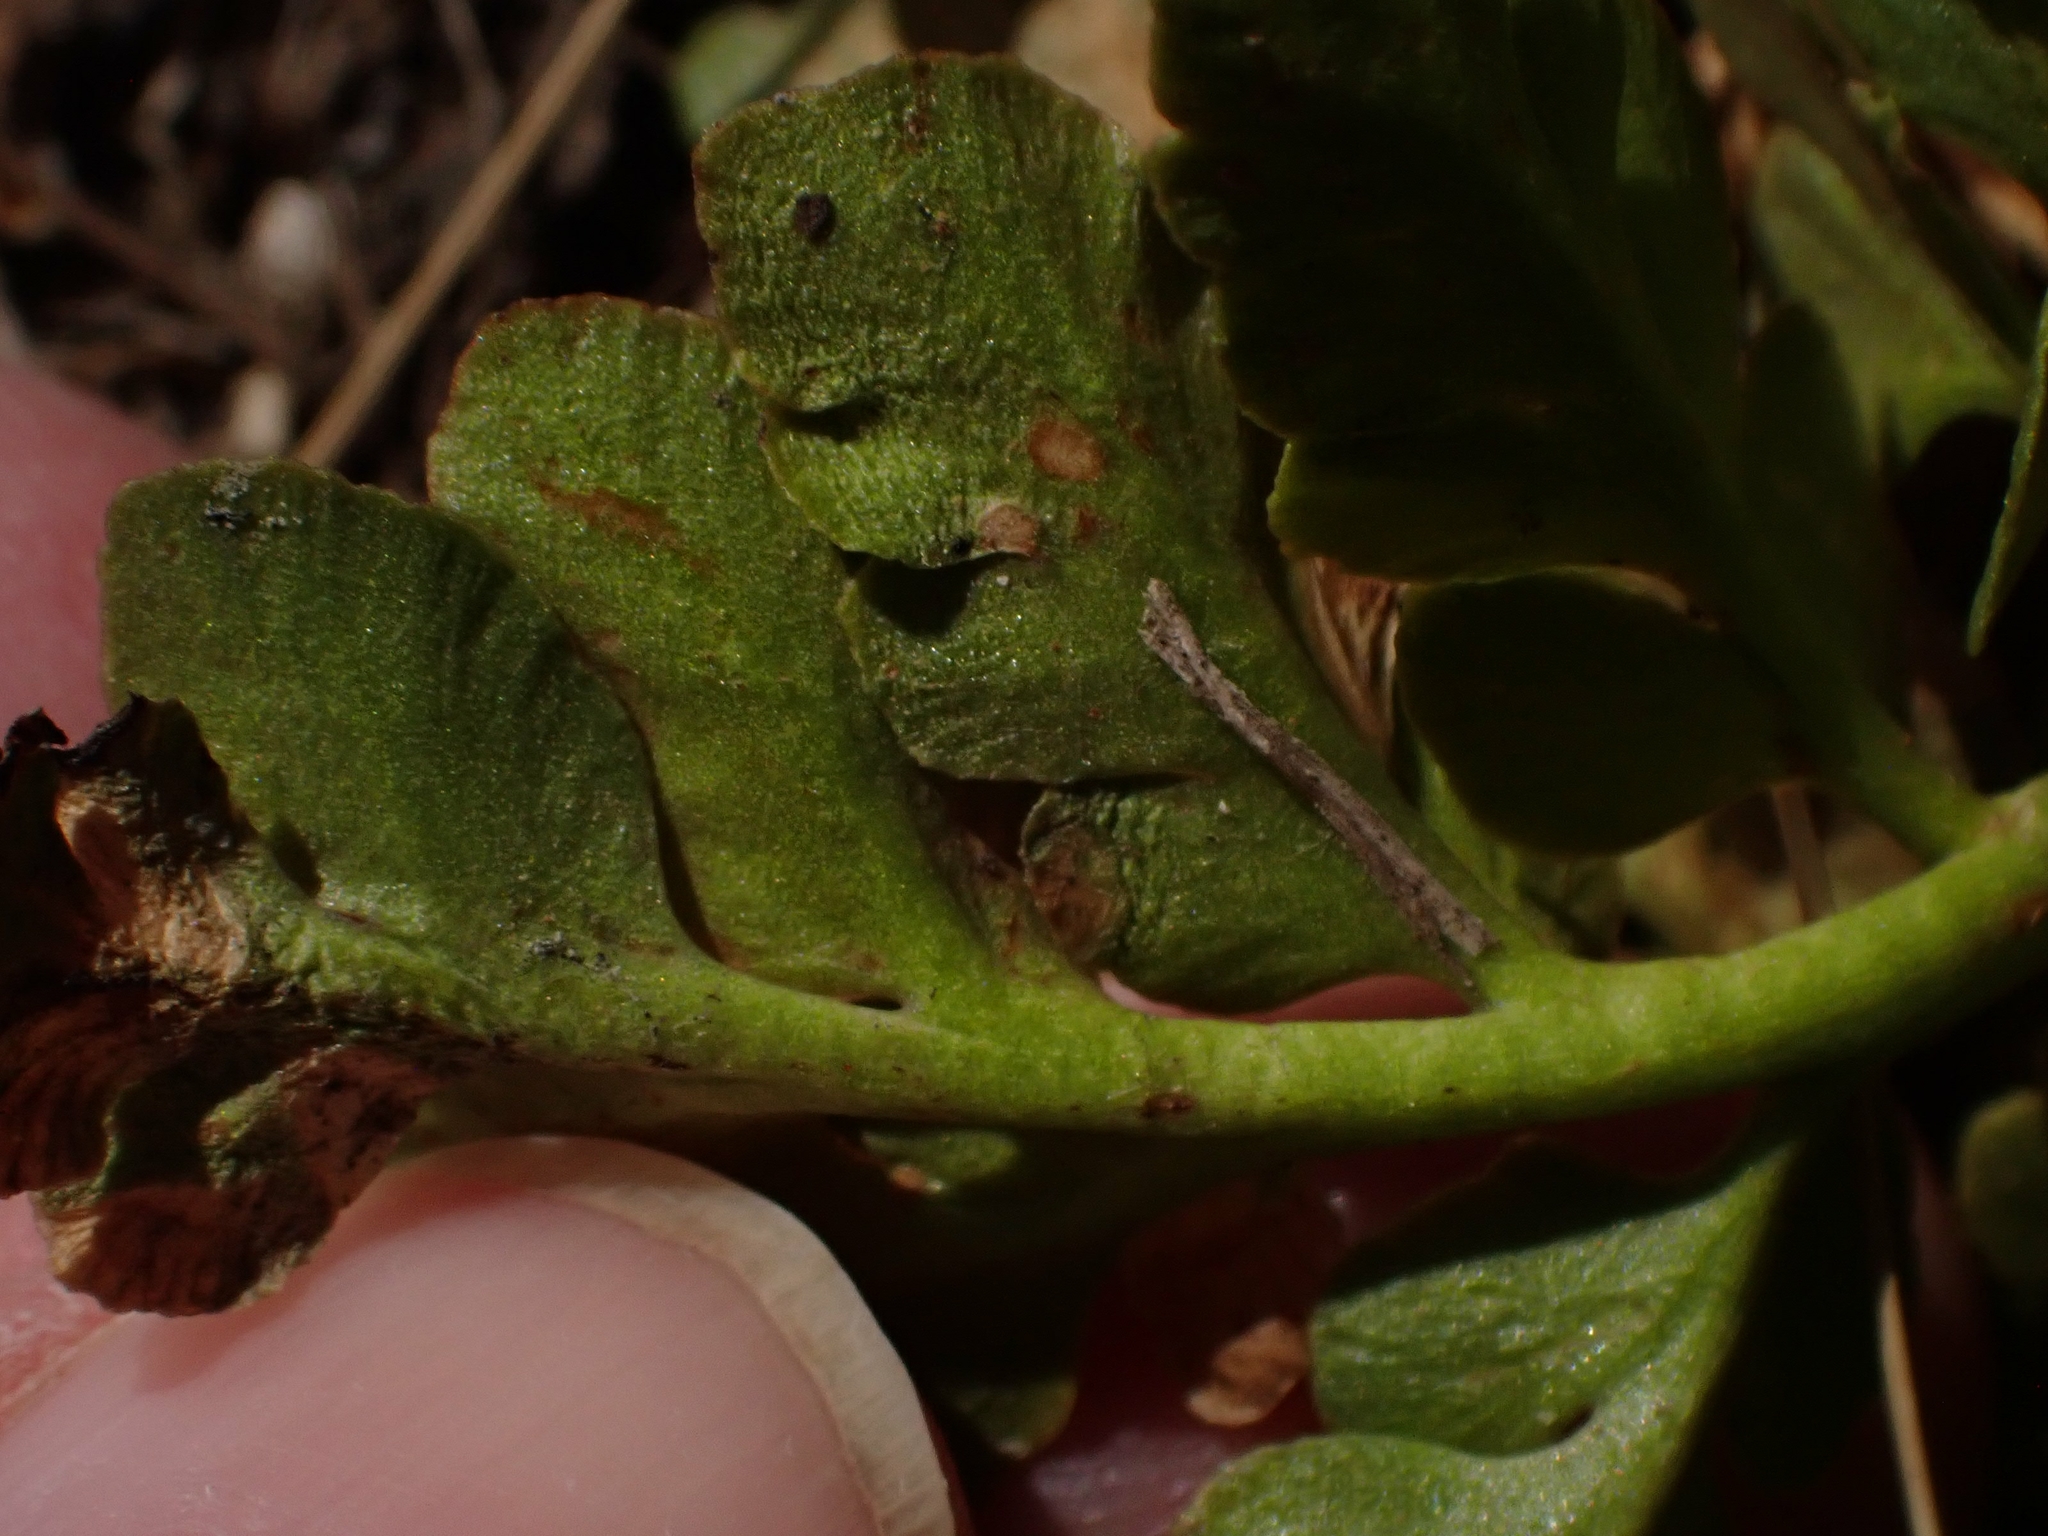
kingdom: Plantae
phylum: Tracheophyta
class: Polypodiopsida
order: Ophioglossales
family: Ophioglossaceae
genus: Sceptridium
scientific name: Sceptridium multifidum
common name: Leathery grape fern
